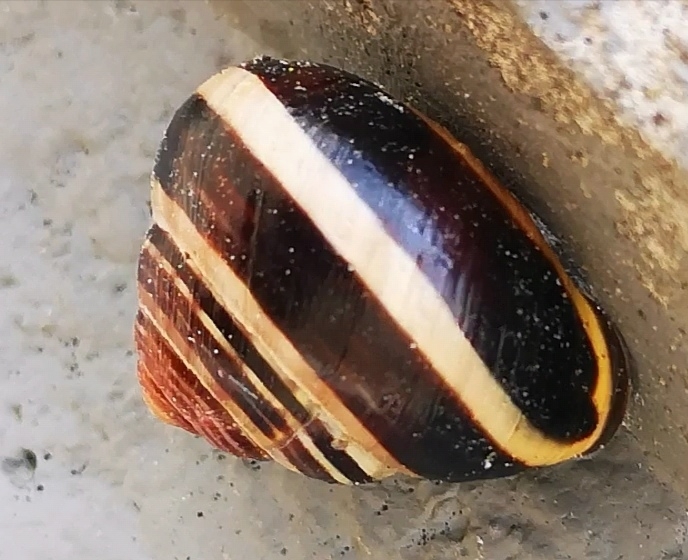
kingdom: Animalia
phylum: Mollusca
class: Gastropoda
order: Stylommatophora
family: Helicidae
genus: Cepaea
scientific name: Cepaea nemoralis
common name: Grovesnail
